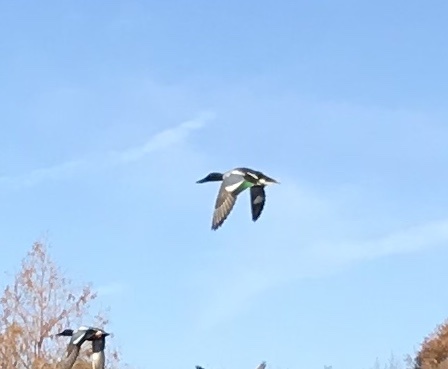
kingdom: Animalia
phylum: Chordata
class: Aves
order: Anseriformes
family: Anatidae
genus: Spatula
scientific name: Spatula clypeata
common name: Northern shoveler
